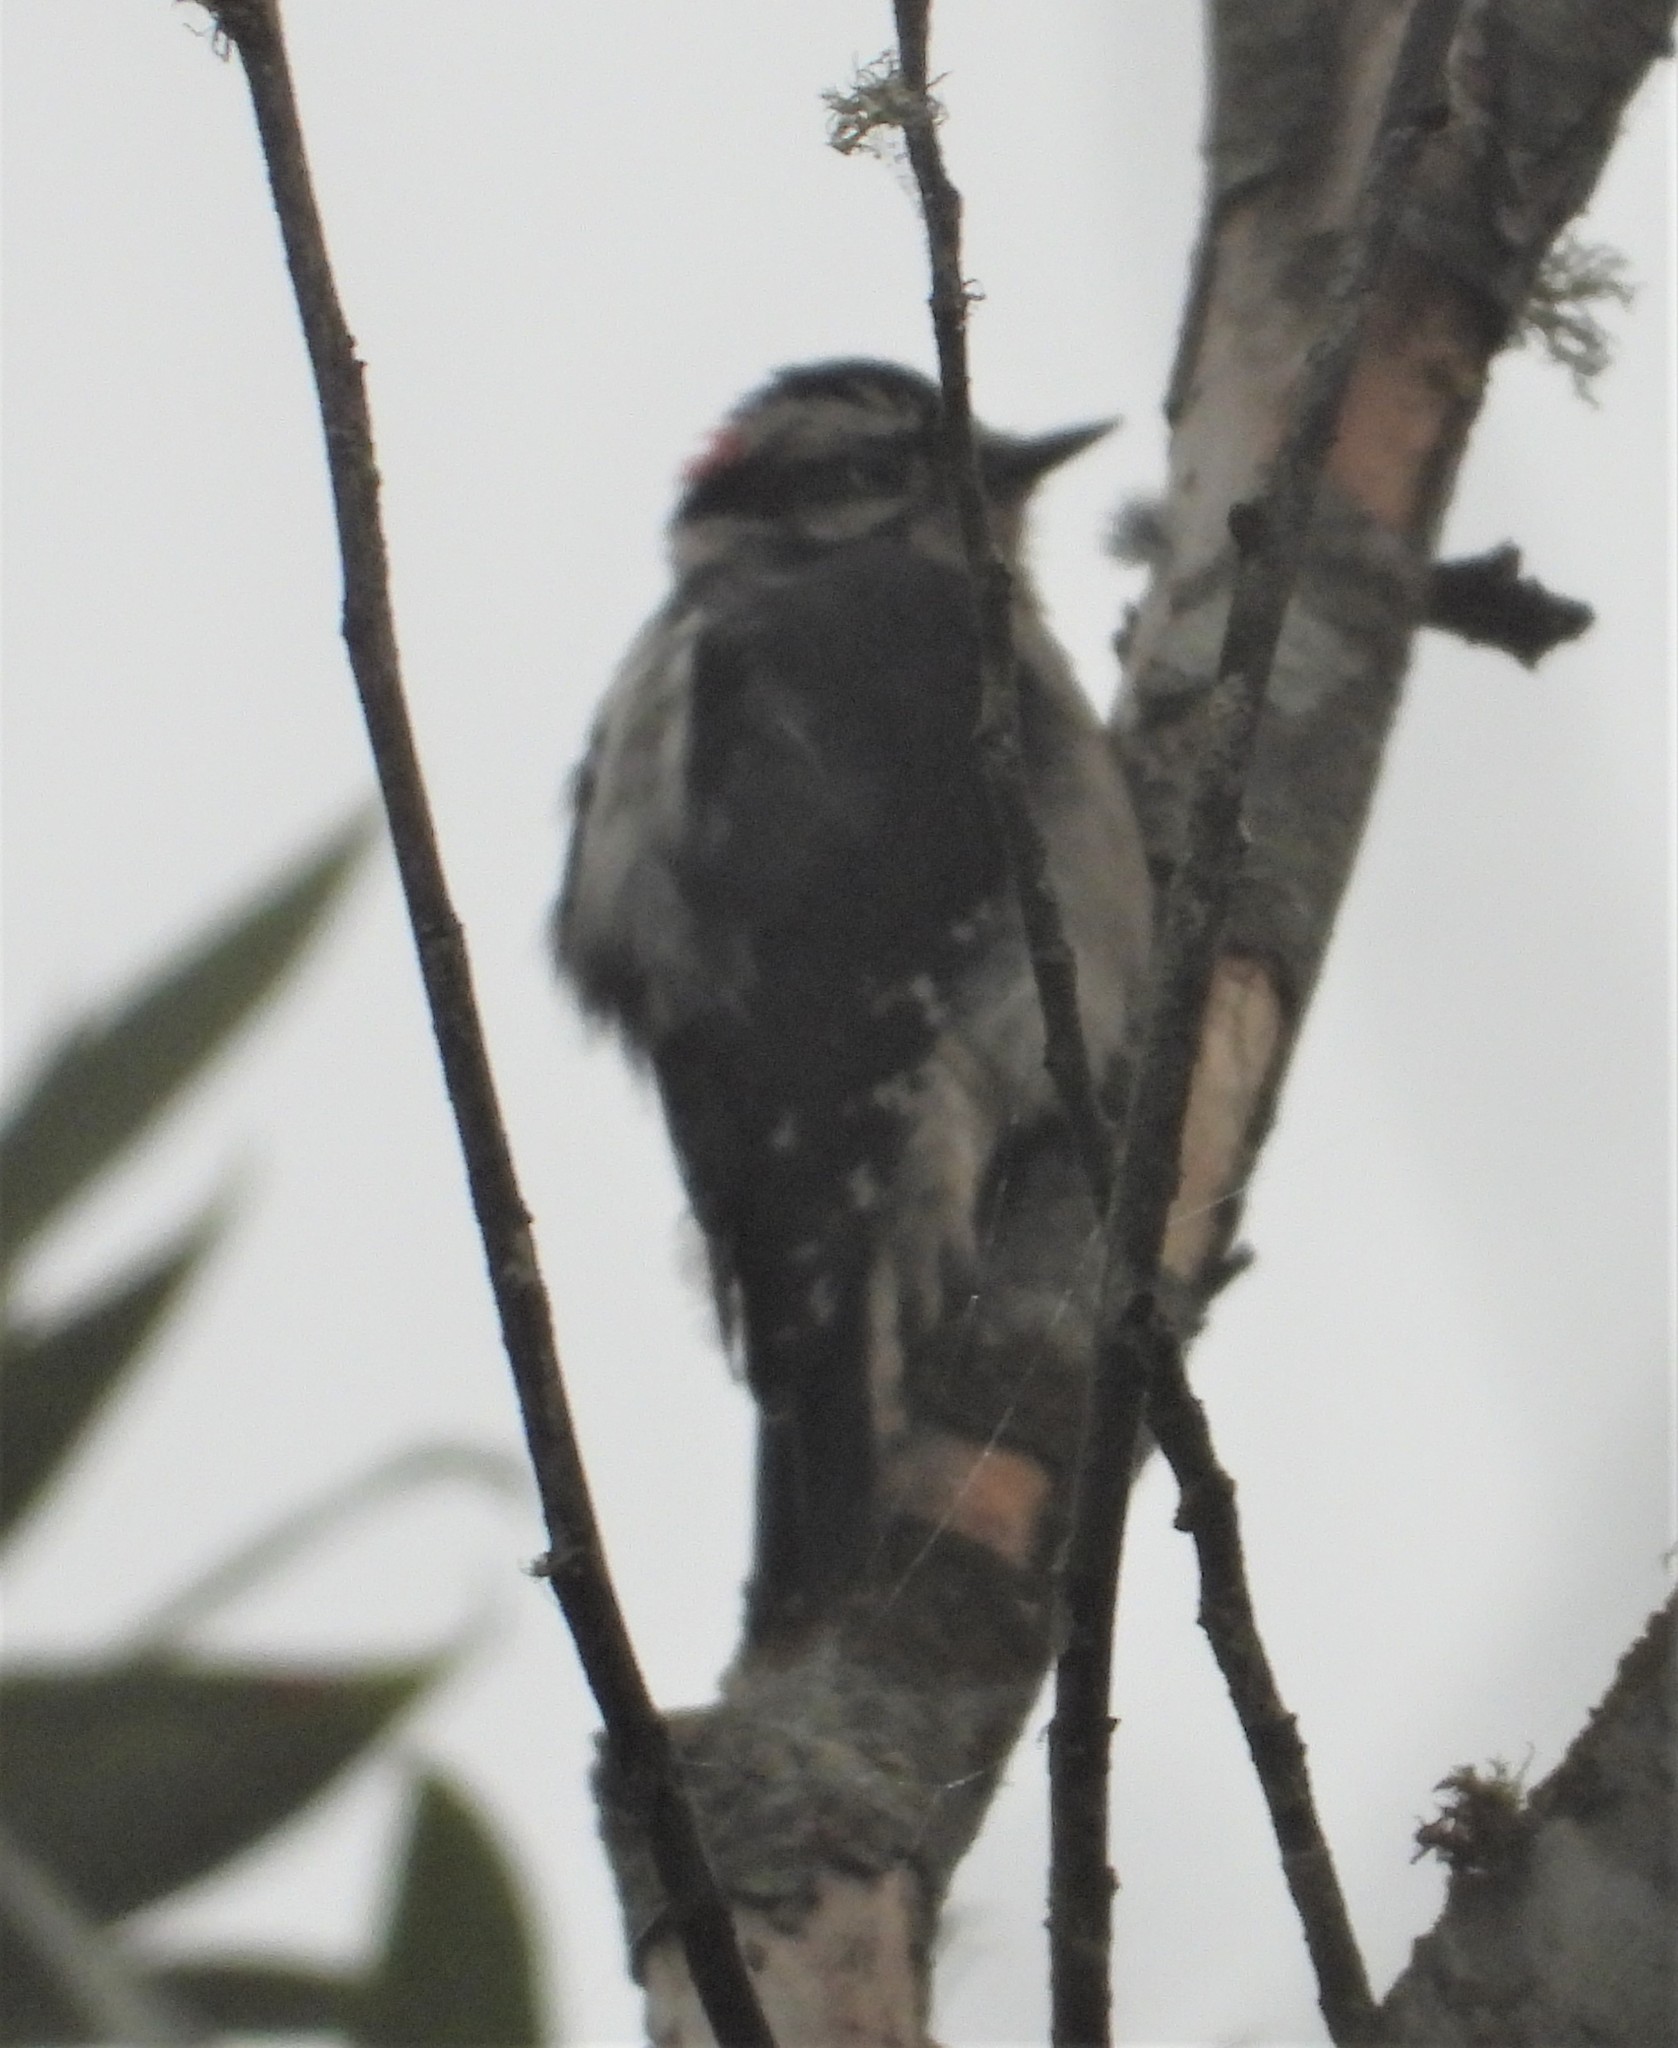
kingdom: Animalia
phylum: Chordata
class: Aves
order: Piciformes
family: Picidae
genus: Dryobates
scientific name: Dryobates pubescens
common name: Downy woodpecker
